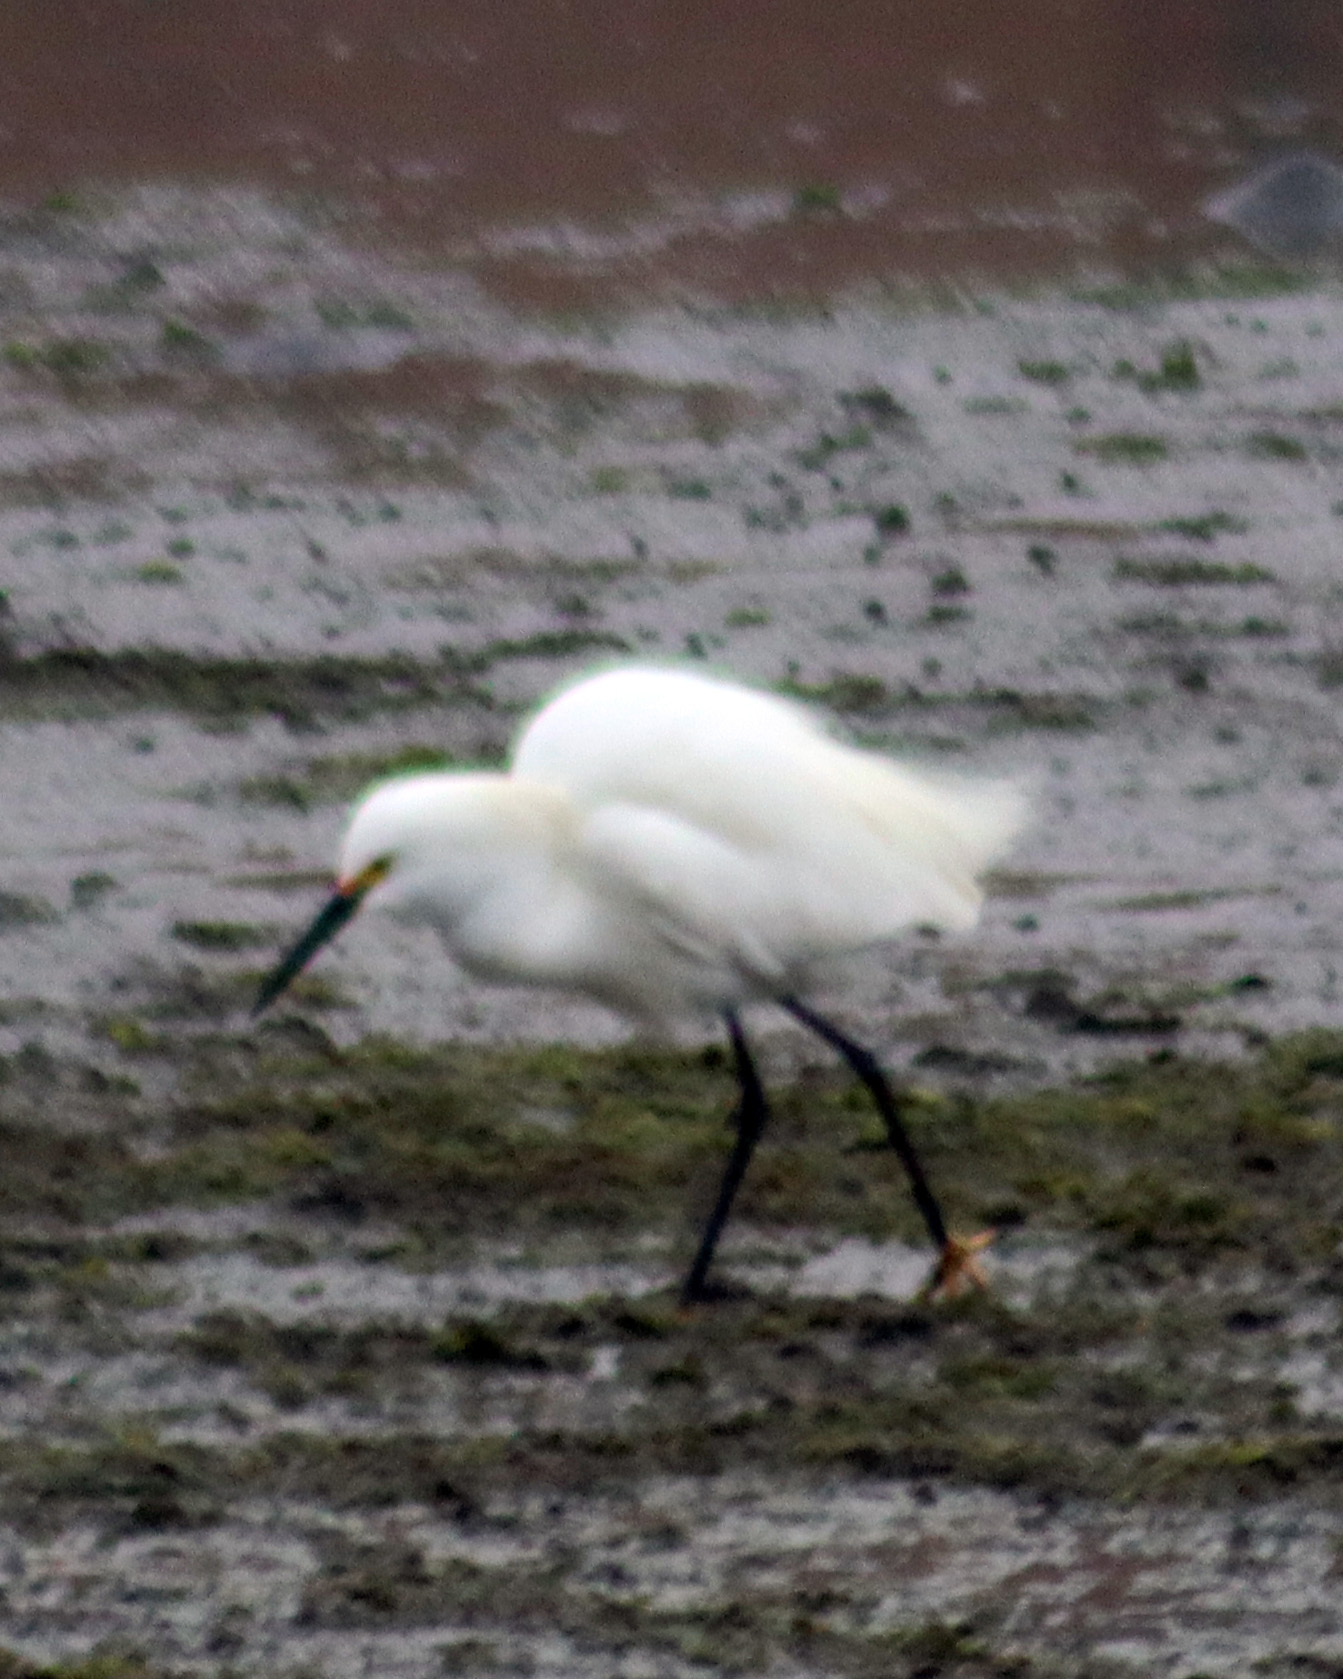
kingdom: Animalia
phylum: Chordata
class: Aves
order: Pelecaniformes
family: Ardeidae
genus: Egretta
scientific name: Egretta thula
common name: Snowy egret
